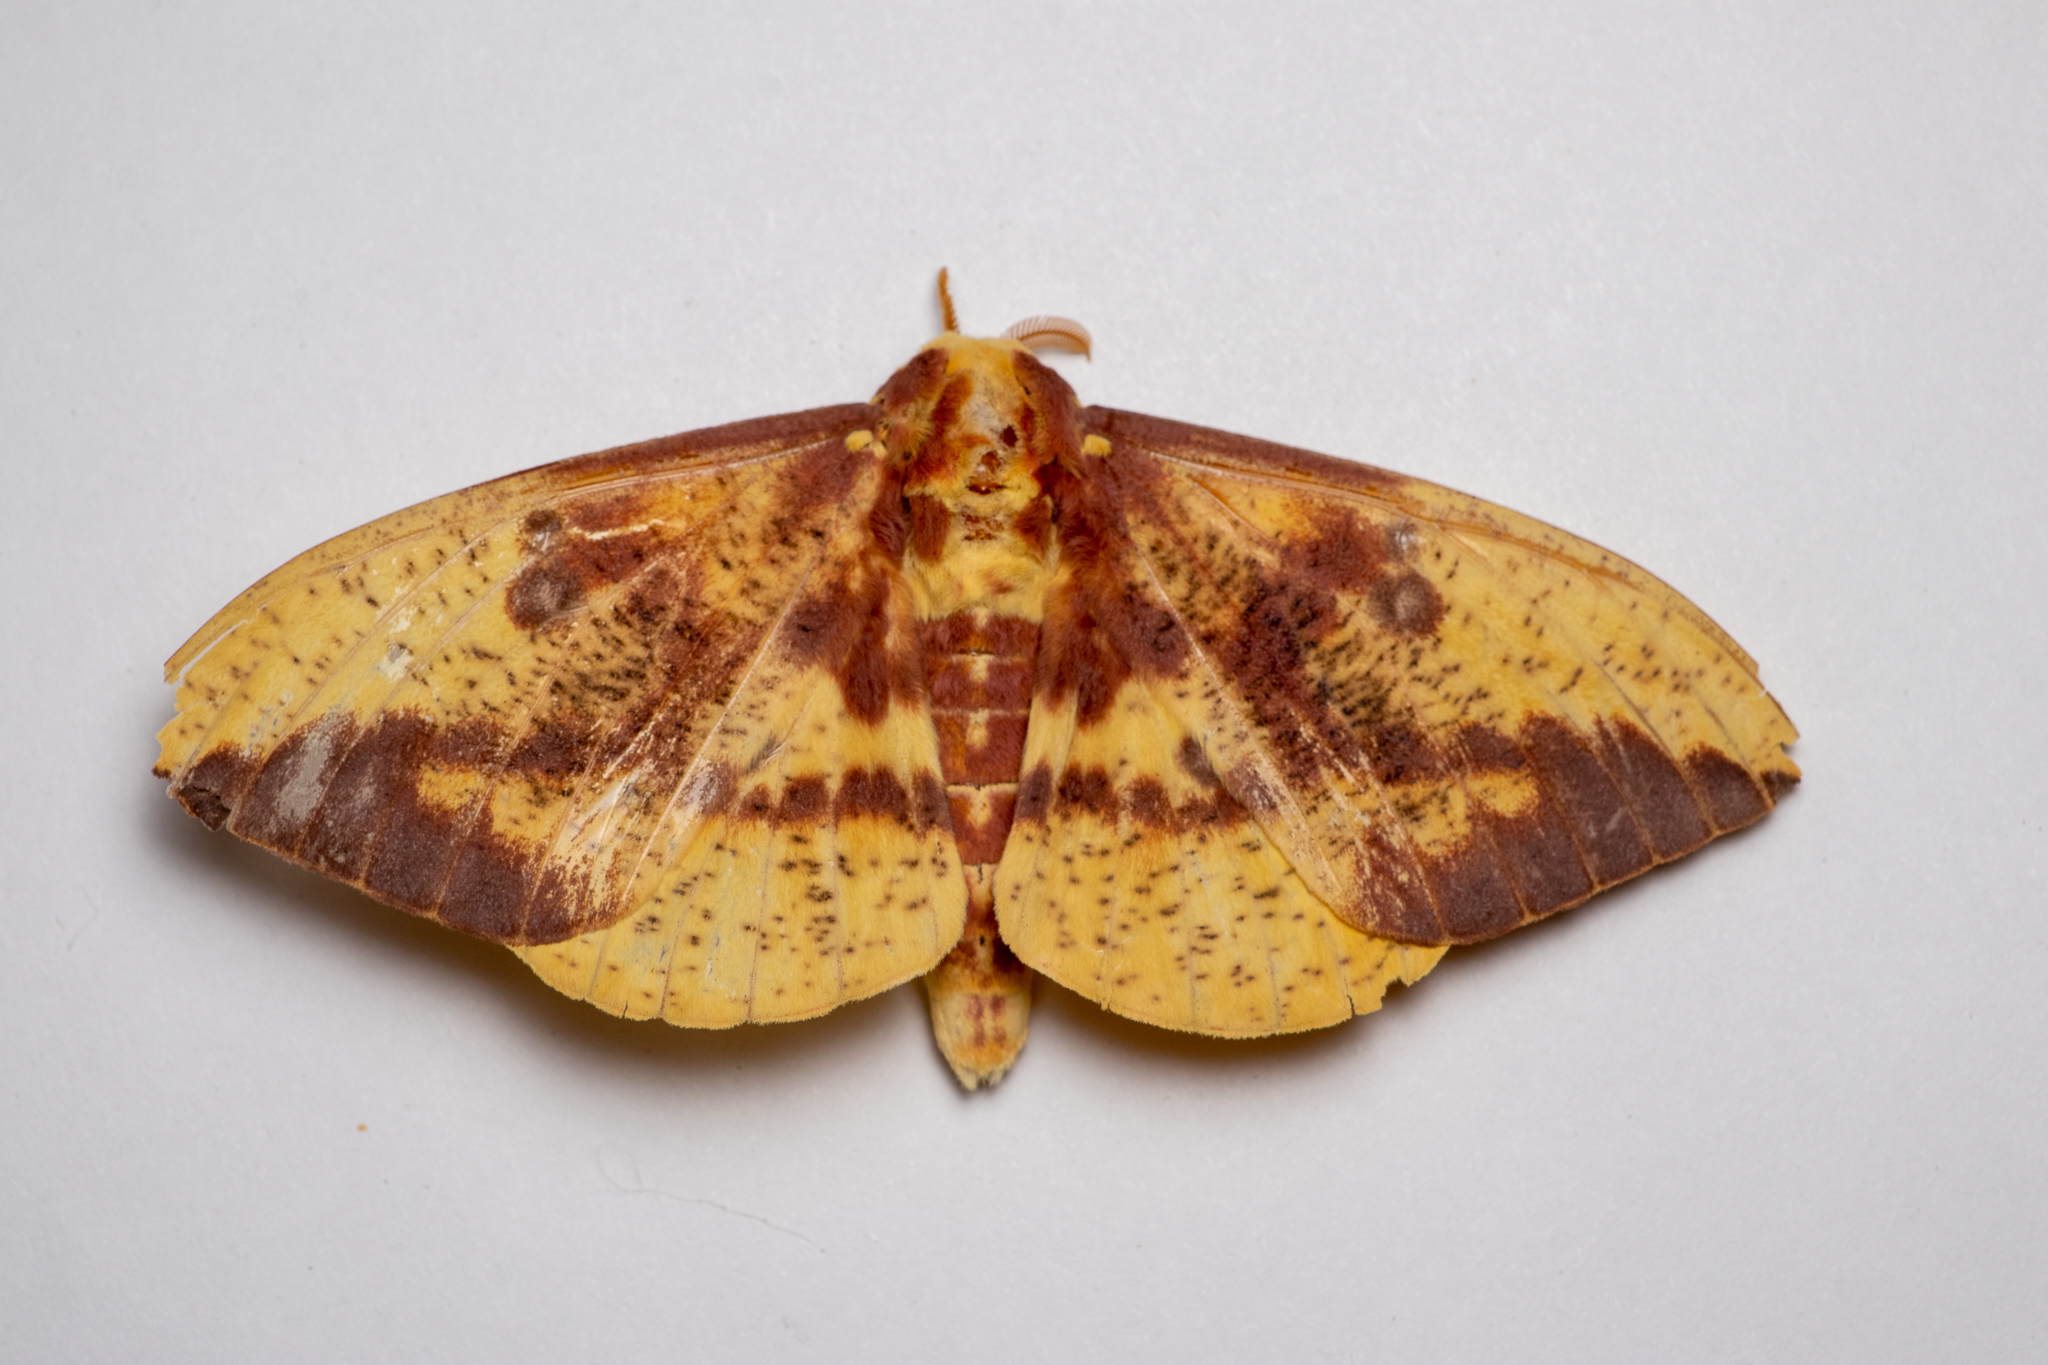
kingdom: Animalia
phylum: Arthropoda
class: Insecta
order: Lepidoptera
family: Saturniidae
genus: Eacles
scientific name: Eacles imperialis
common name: Imperial moth
